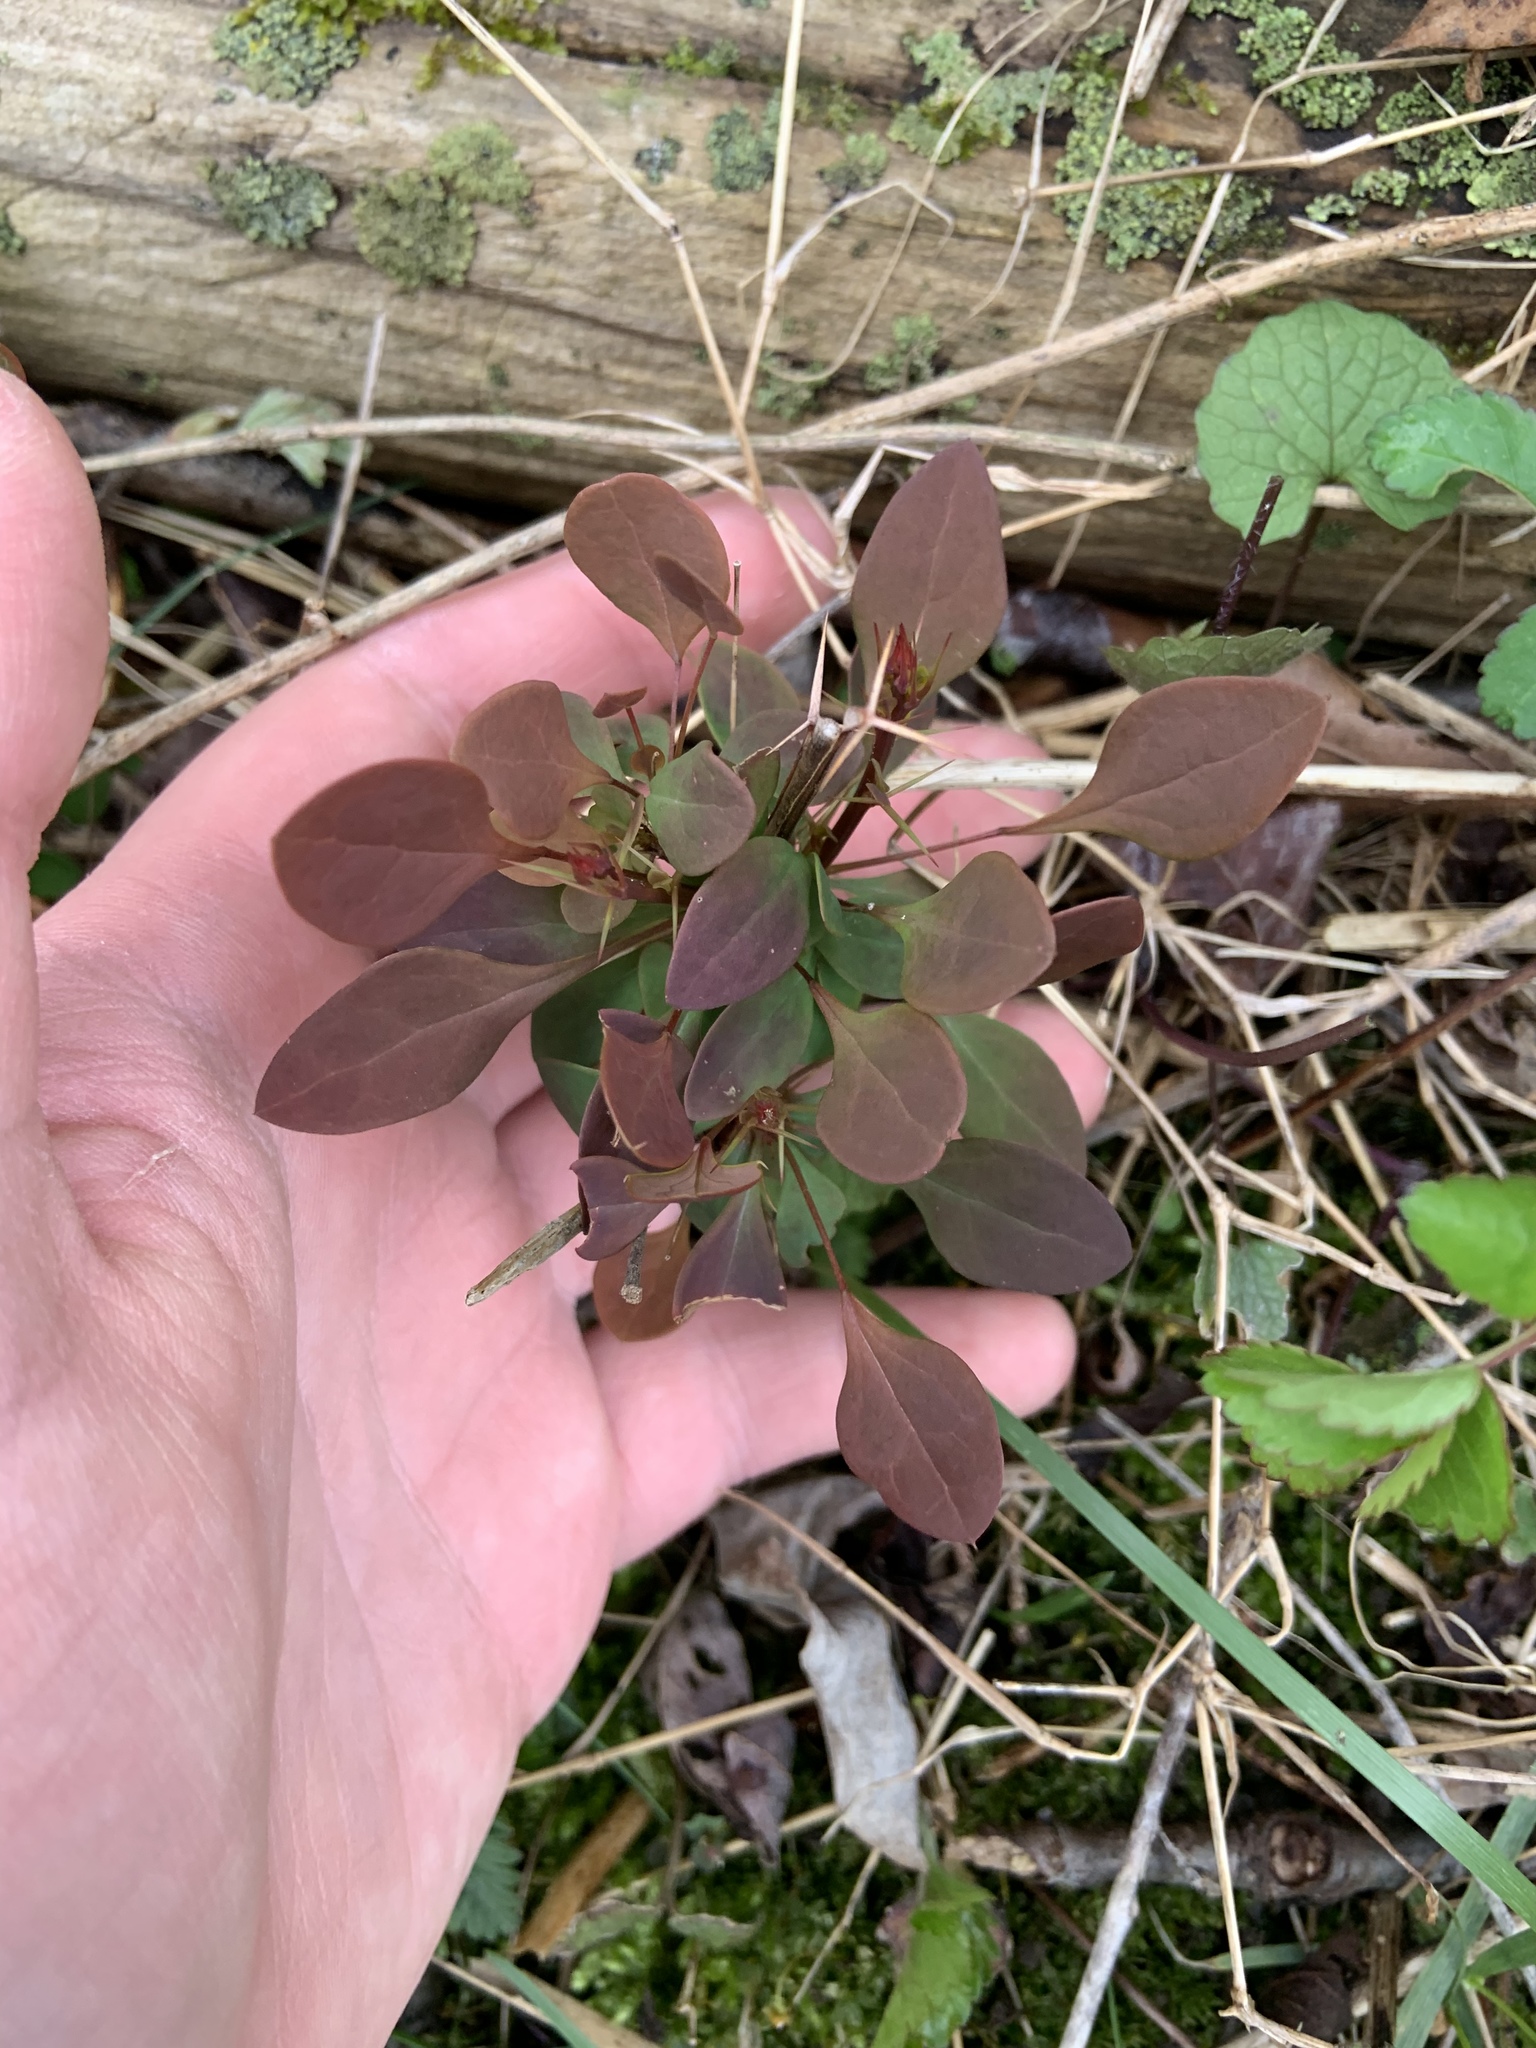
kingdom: Plantae
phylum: Tracheophyta
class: Magnoliopsida
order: Ranunculales
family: Berberidaceae
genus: Berberis
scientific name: Berberis thunbergii
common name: Japanese barberry
